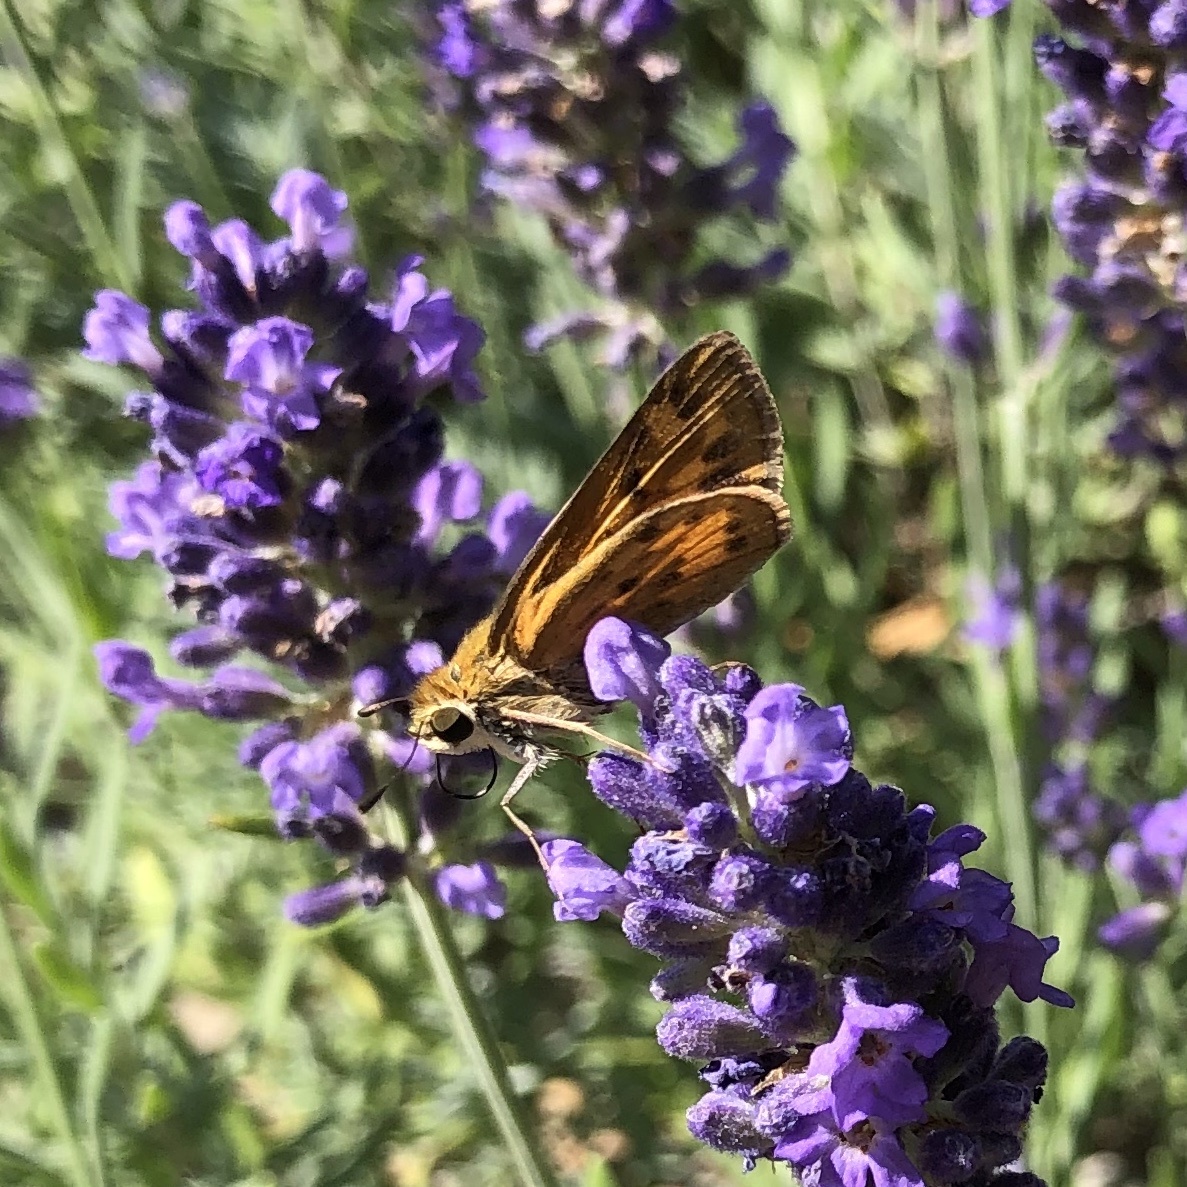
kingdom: Animalia
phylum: Arthropoda
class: Insecta
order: Lepidoptera
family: Hesperiidae
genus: Hylephila
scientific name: Hylephila phyleus
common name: Fiery skipper
